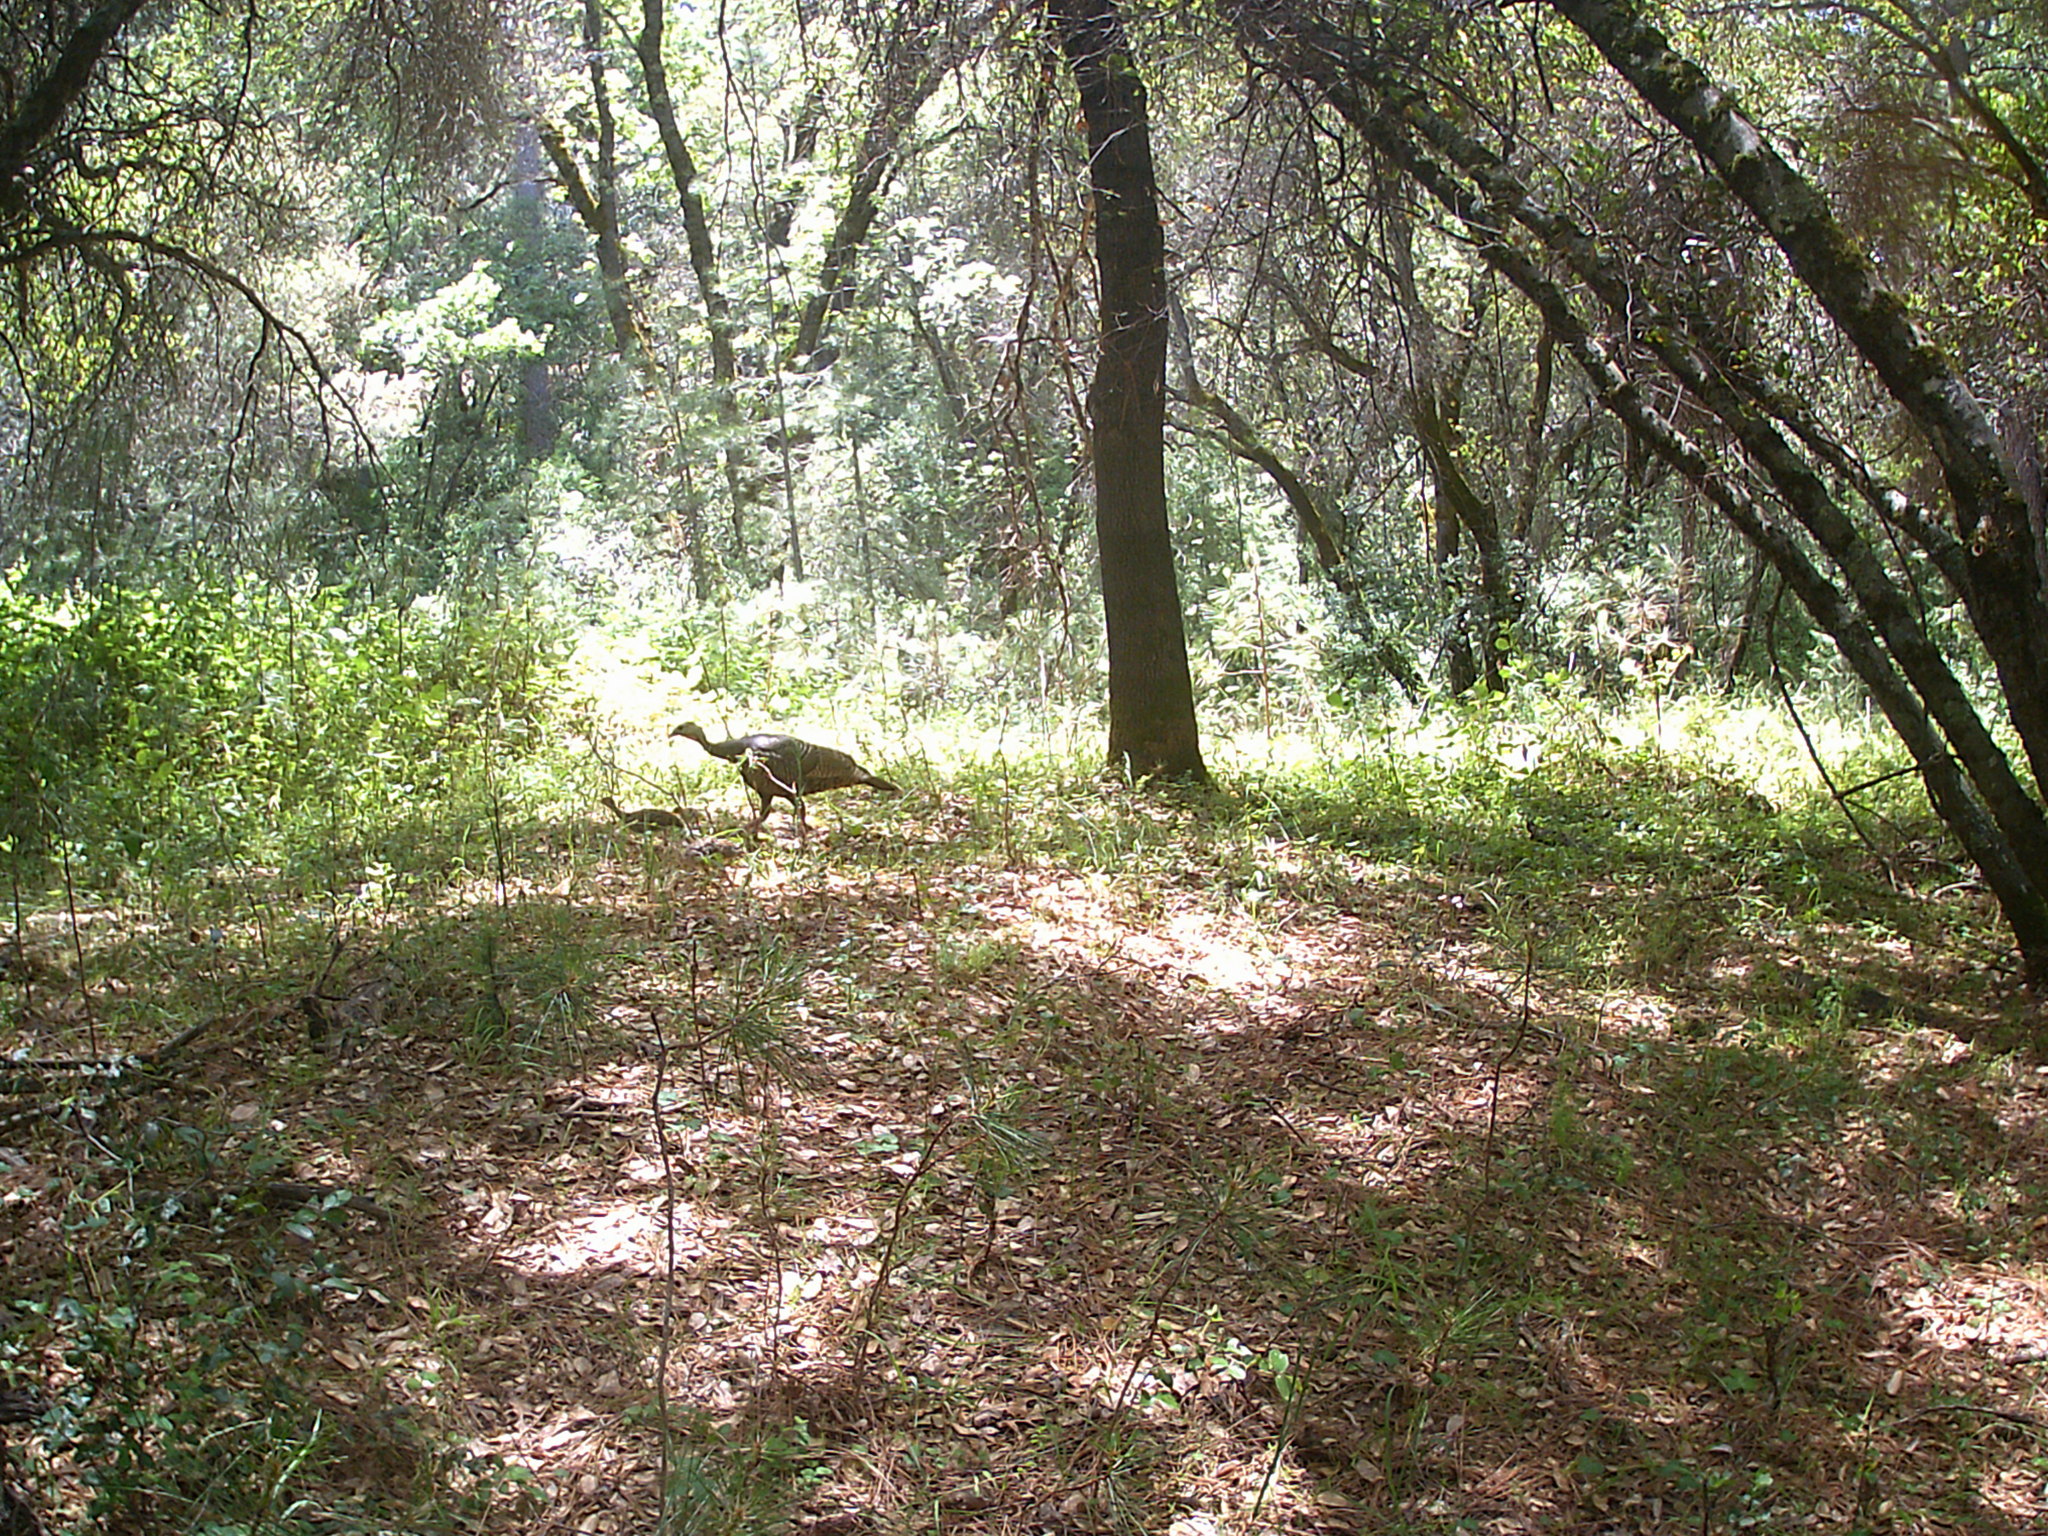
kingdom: Animalia
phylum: Chordata
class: Aves
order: Galliformes
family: Phasianidae
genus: Meleagris
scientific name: Meleagris gallopavo
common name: Wild turkey
